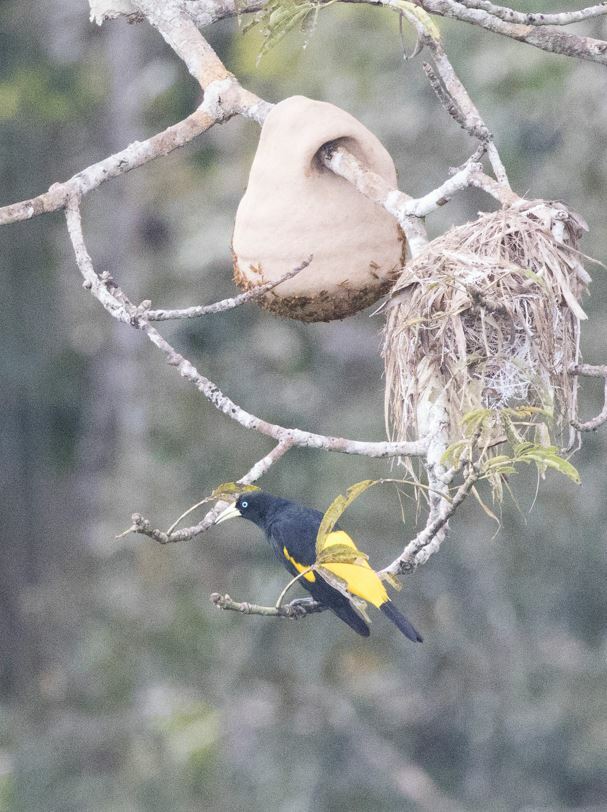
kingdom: Animalia
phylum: Chordata
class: Aves
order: Passeriformes
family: Icteridae
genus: Cacicus
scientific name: Cacicus cela
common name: Yellow-rumped cacique
